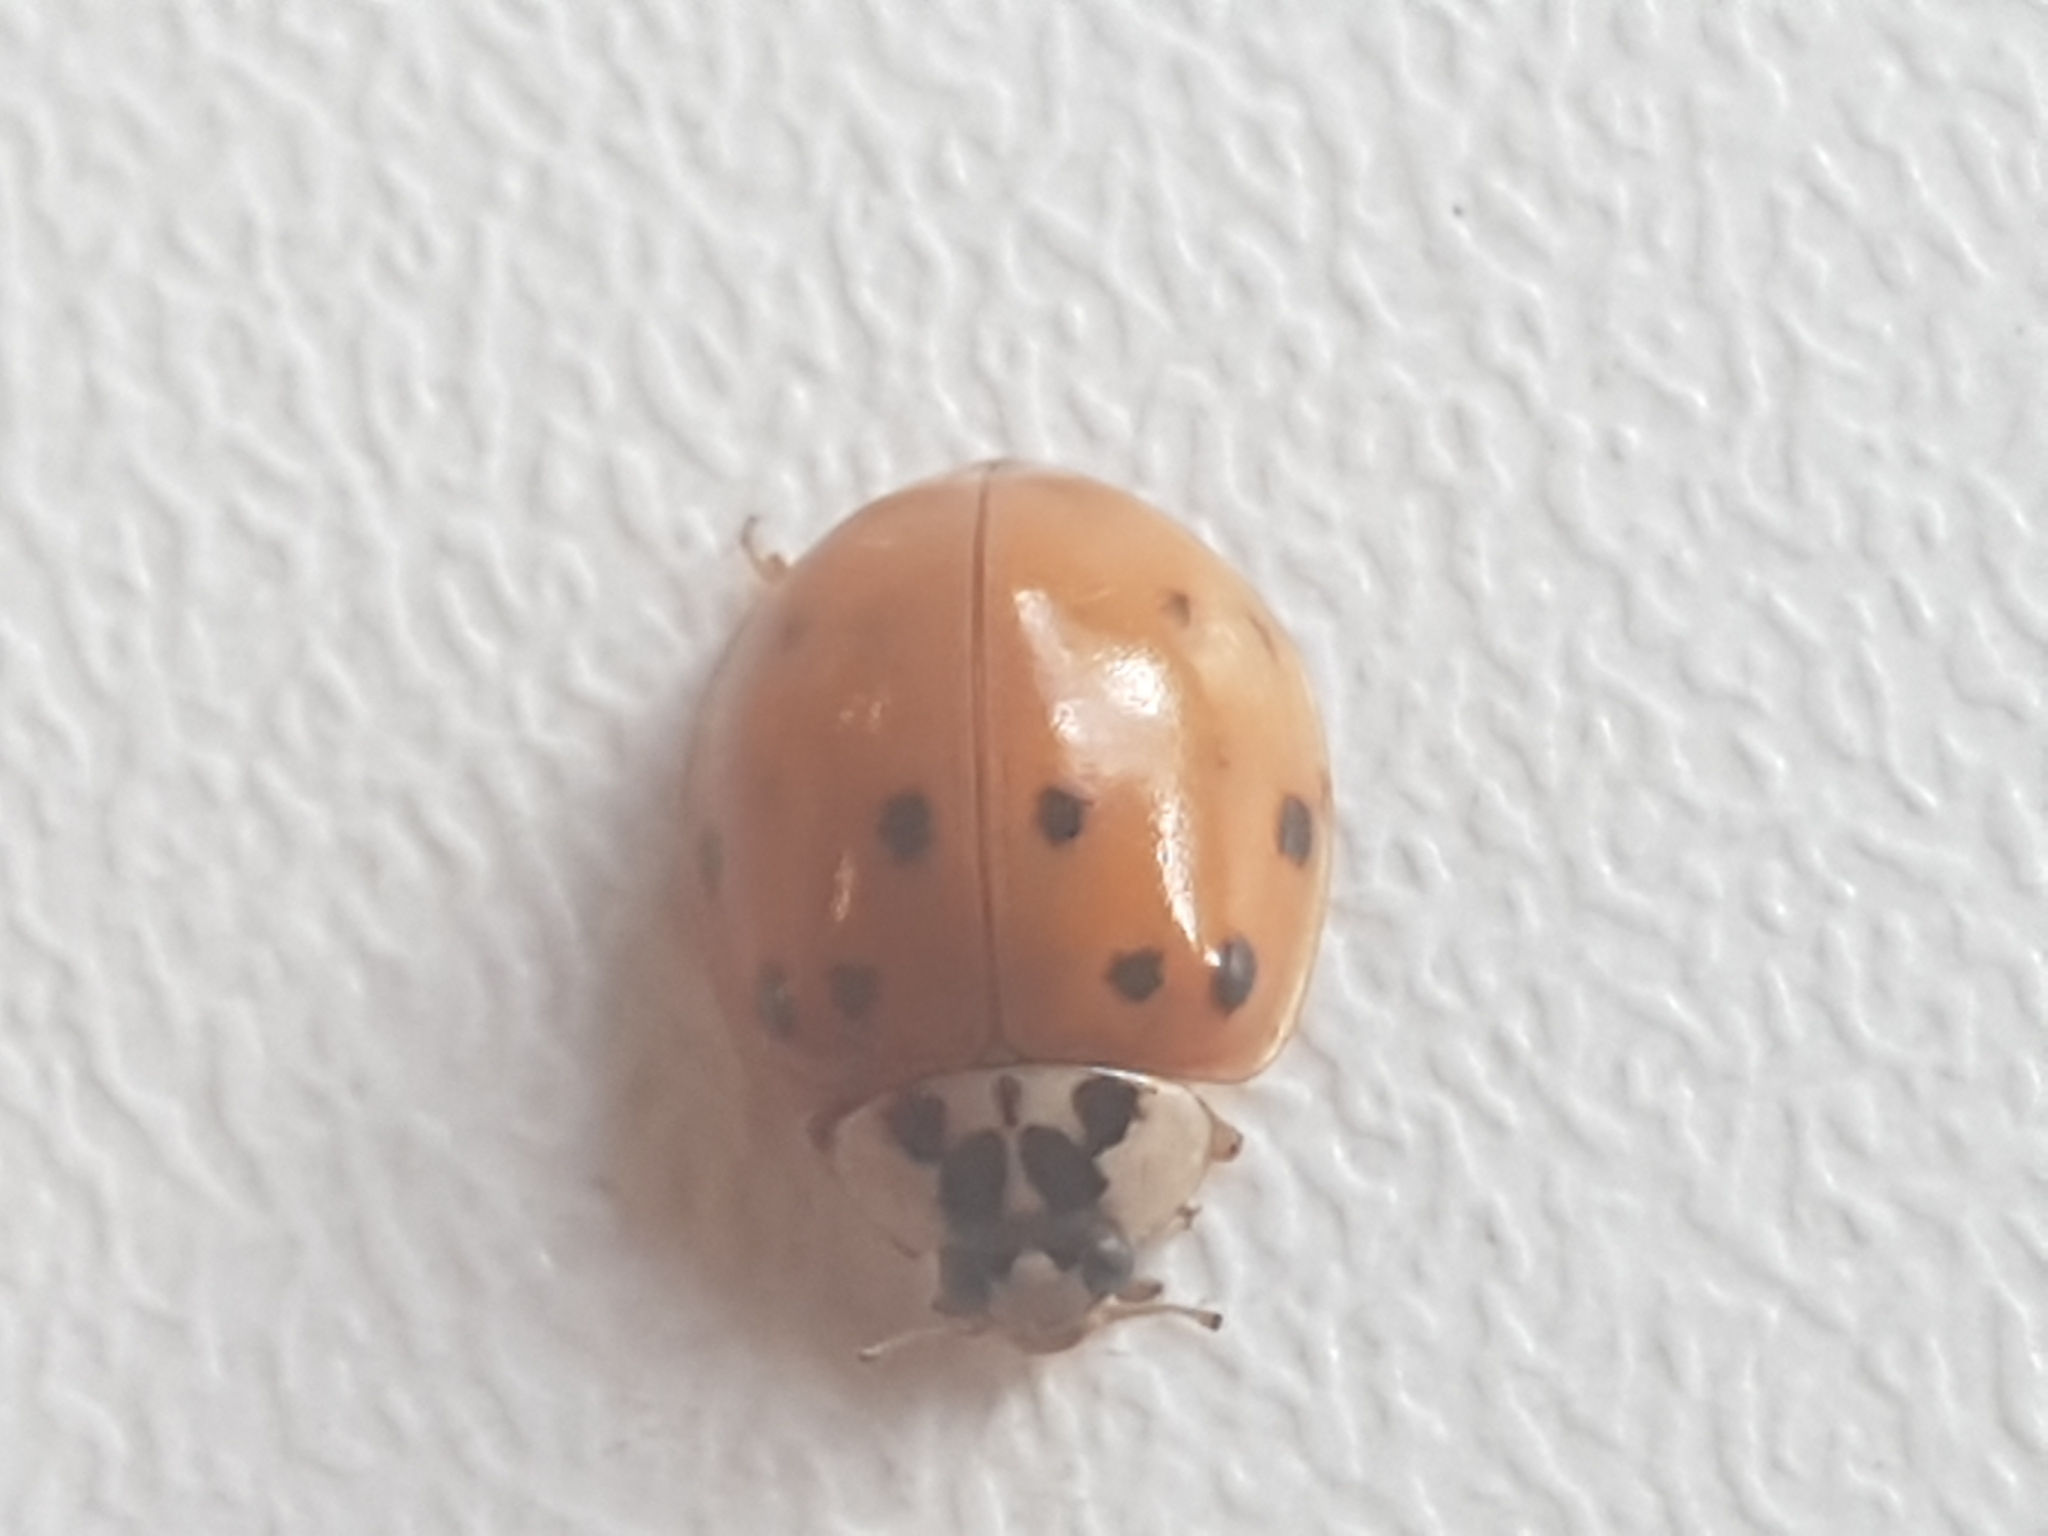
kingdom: Animalia
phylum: Arthropoda
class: Insecta
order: Coleoptera
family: Coccinellidae
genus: Harmonia
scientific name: Harmonia axyridis
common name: Harlequin ladybird
